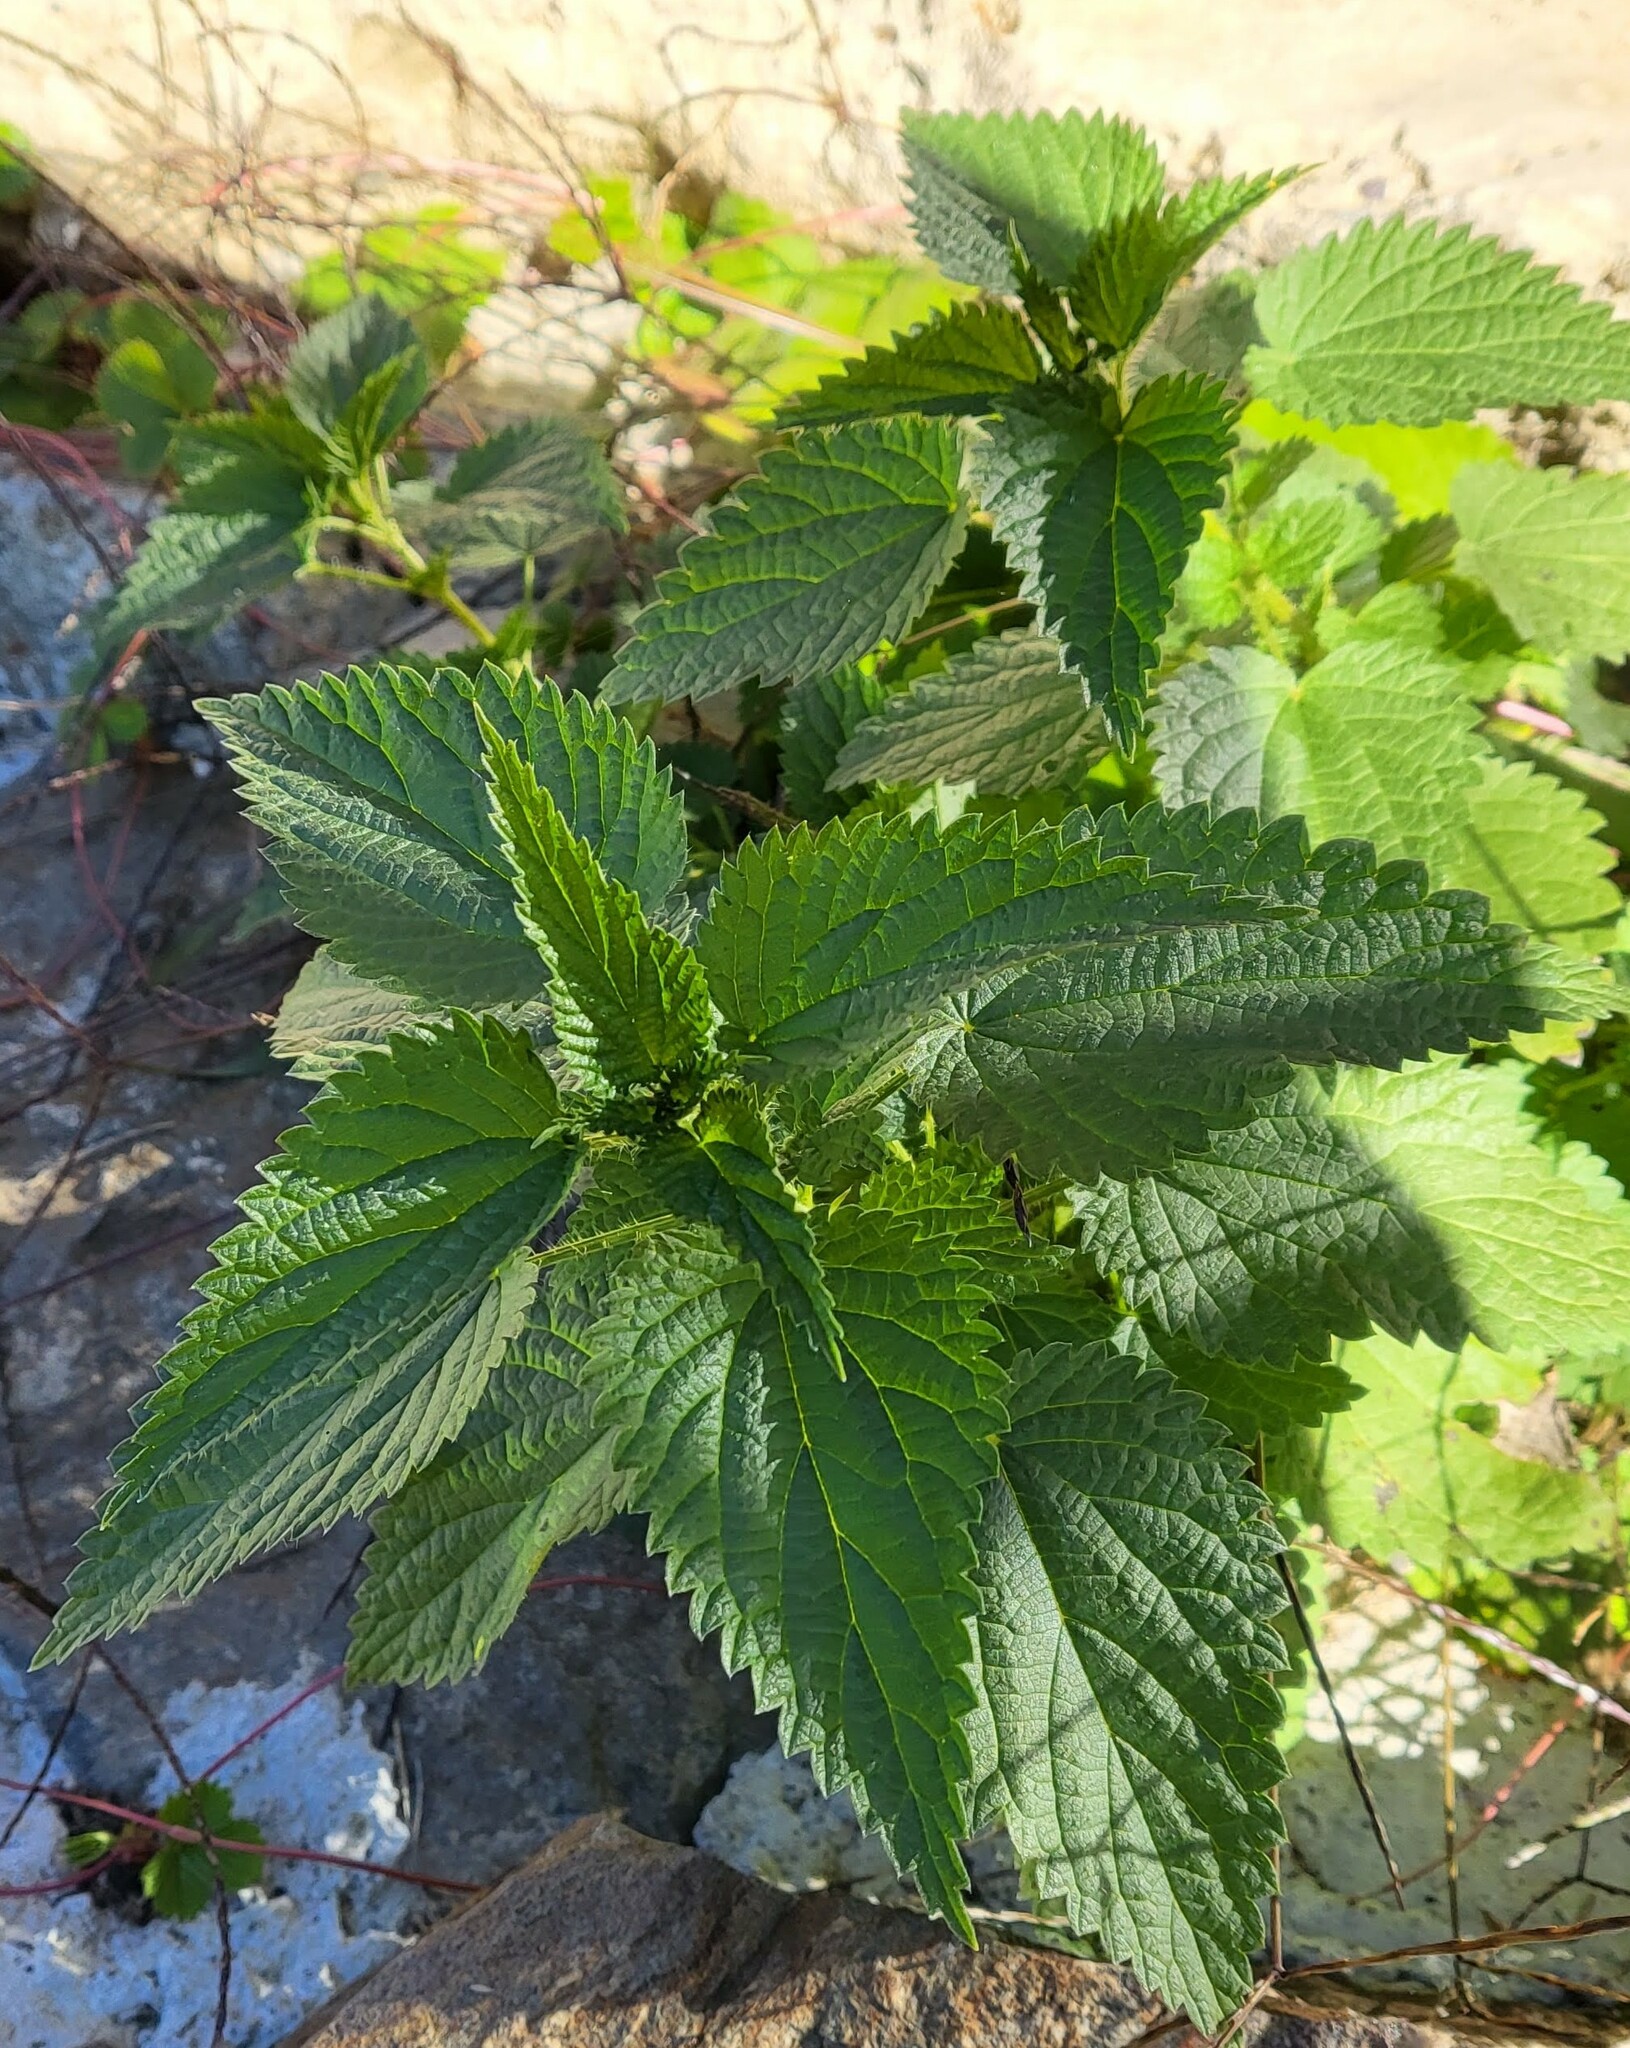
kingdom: Plantae
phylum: Tracheophyta
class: Magnoliopsida
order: Rosales
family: Urticaceae
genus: Urtica
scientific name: Urtica dioica
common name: Common nettle
